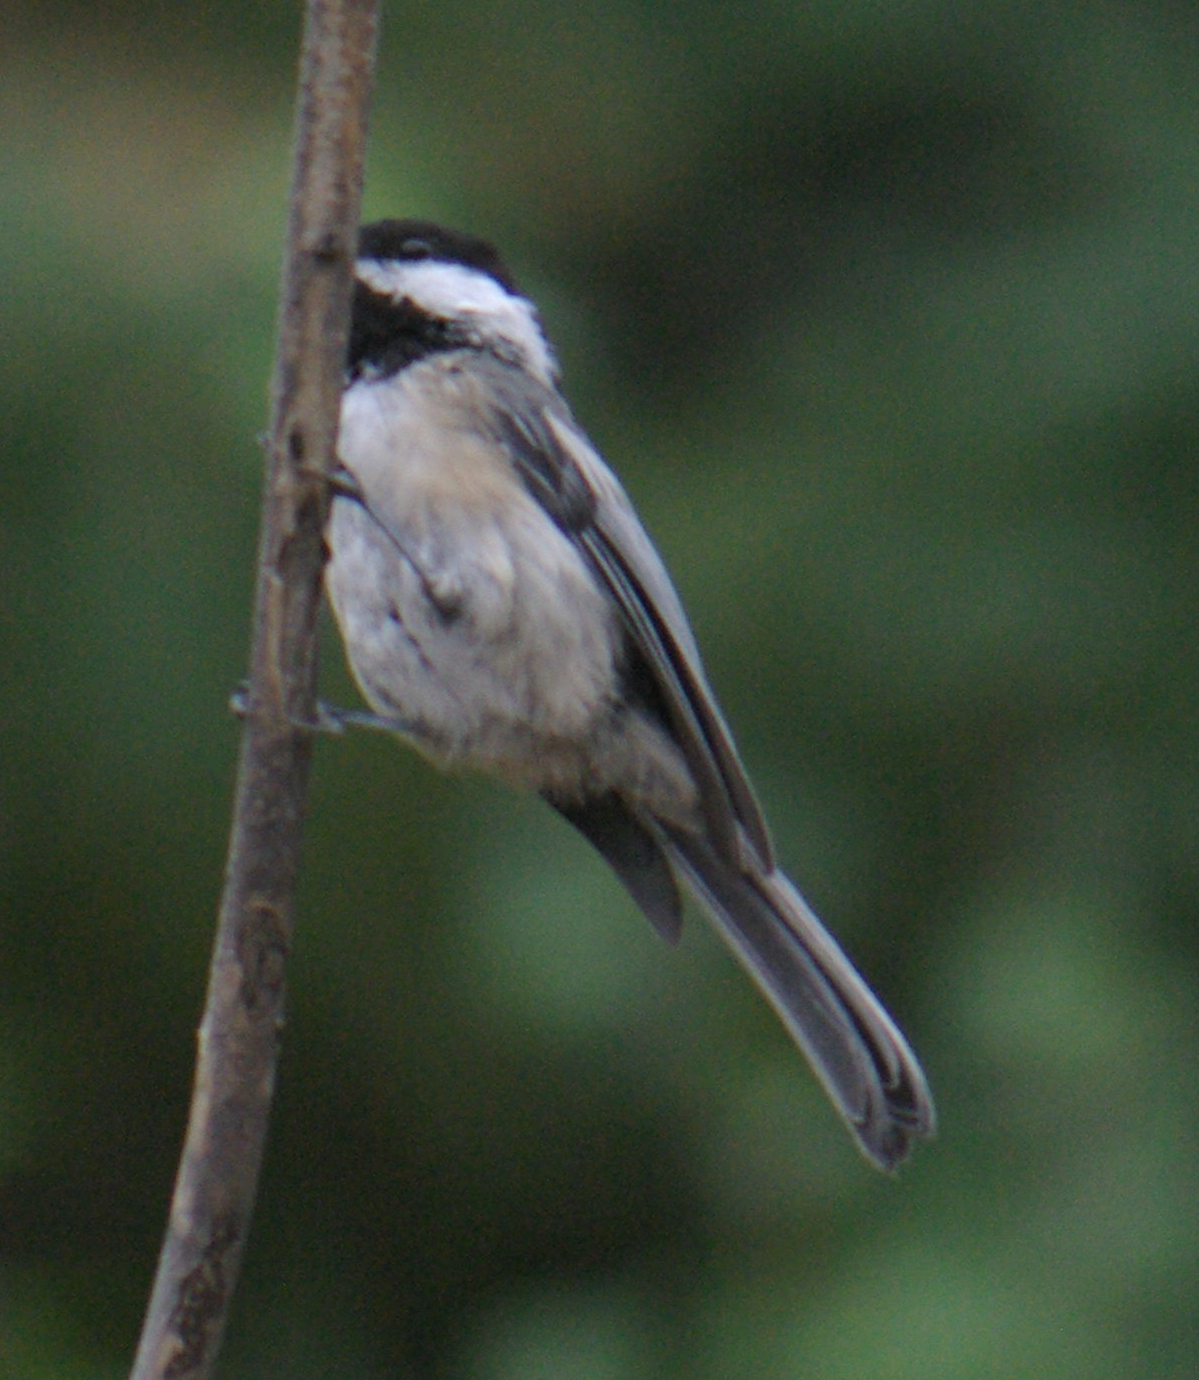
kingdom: Animalia
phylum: Chordata
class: Aves
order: Passeriformes
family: Paridae
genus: Poecile
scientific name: Poecile atricapillus
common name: Black-capped chickadee
